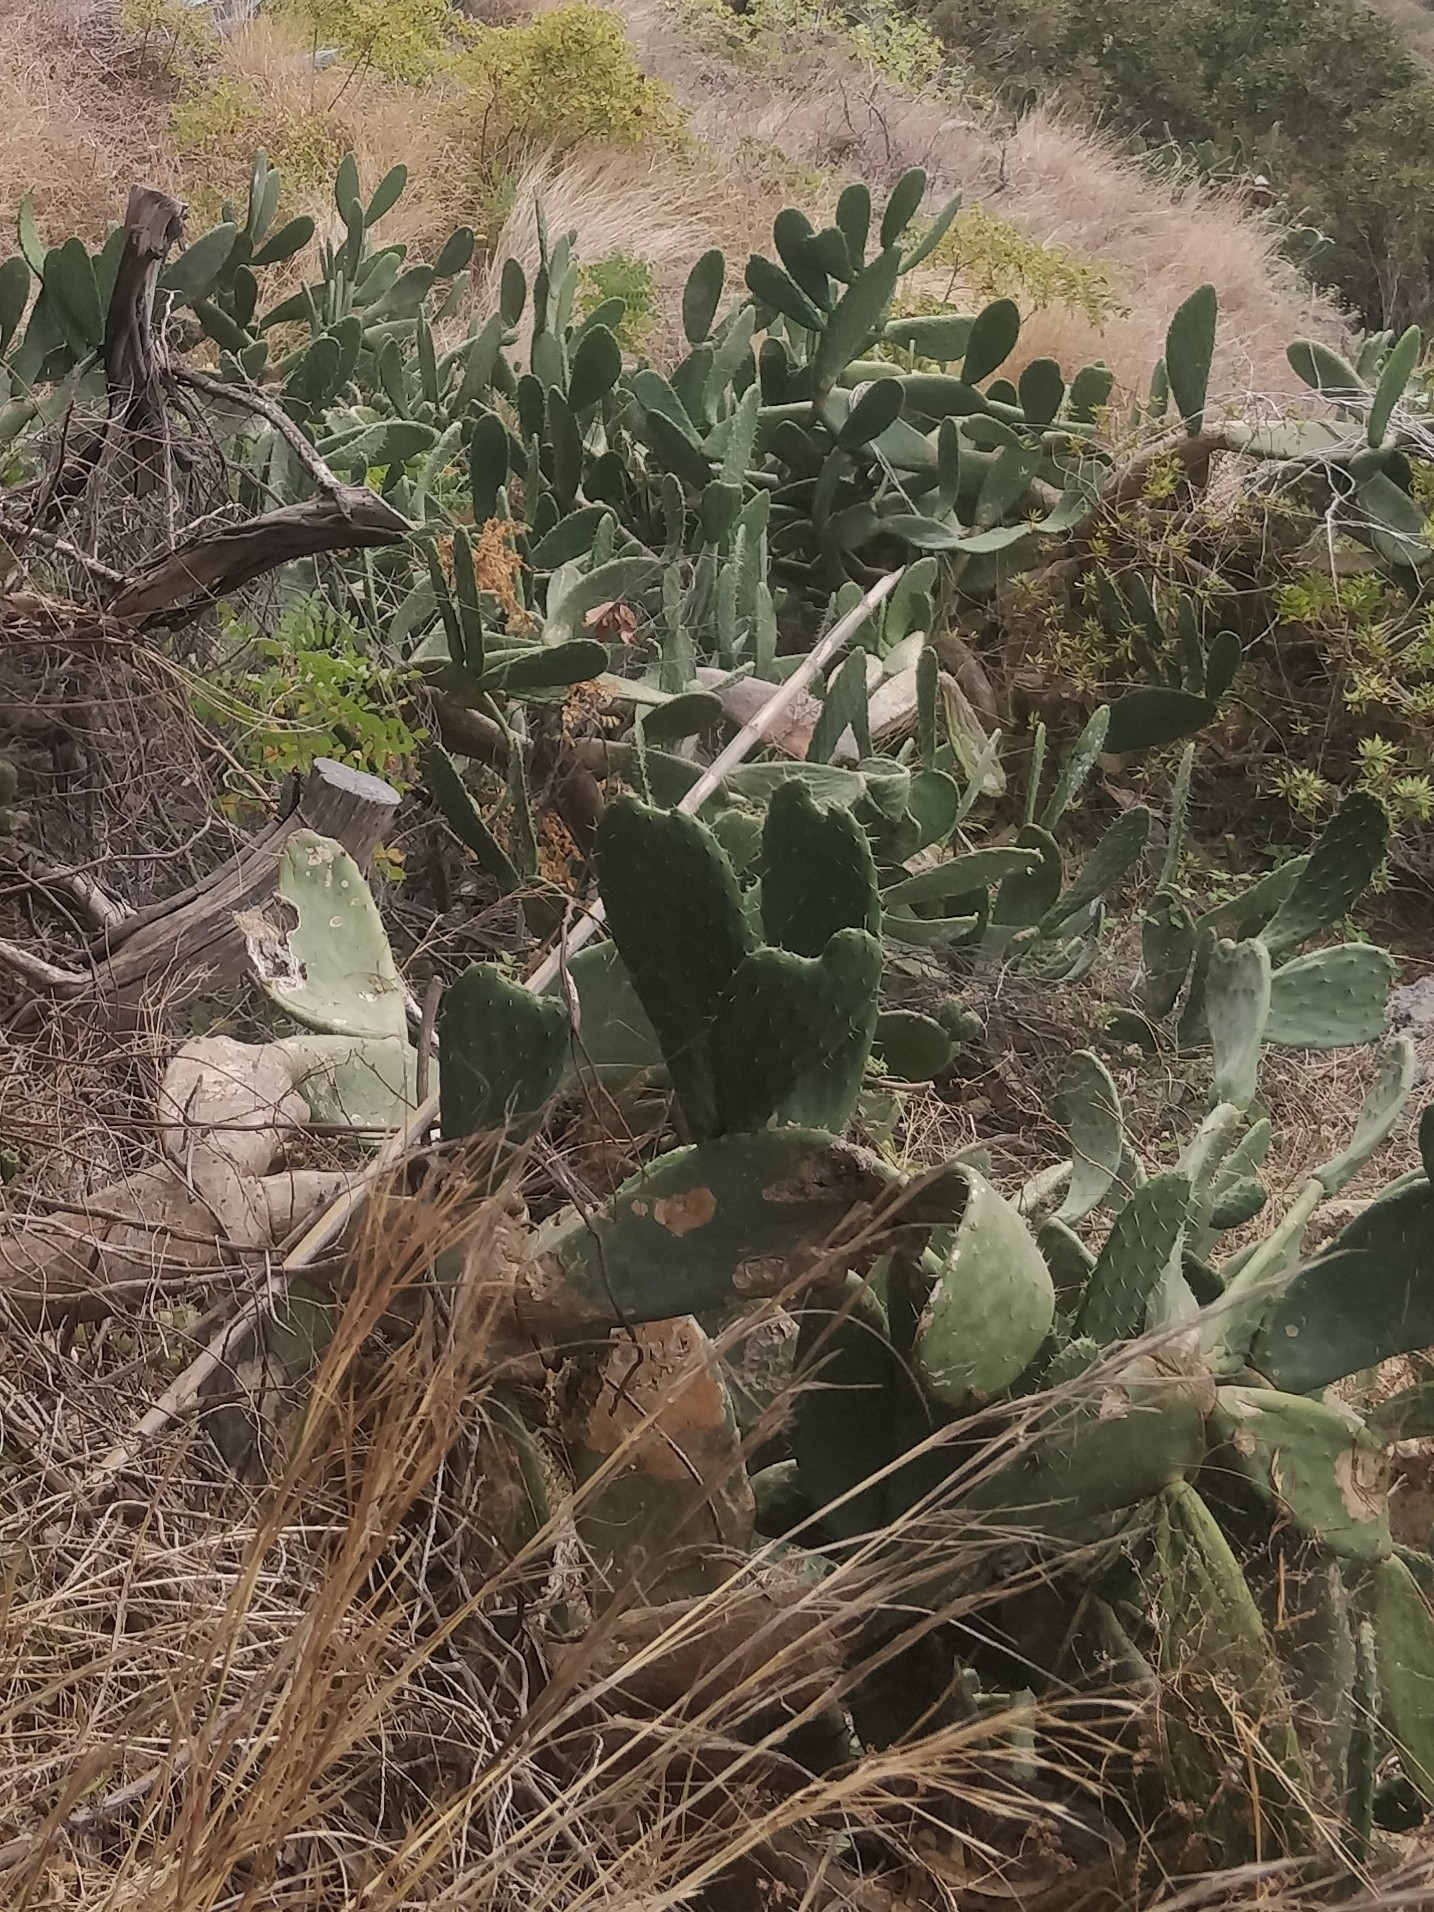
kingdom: Plantae
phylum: Tracheophyta
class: Magnoliopsida
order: Caryophyllales
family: Cactaceae
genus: Opuntia
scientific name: Opuntia ficus-indica
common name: Barbary fig
